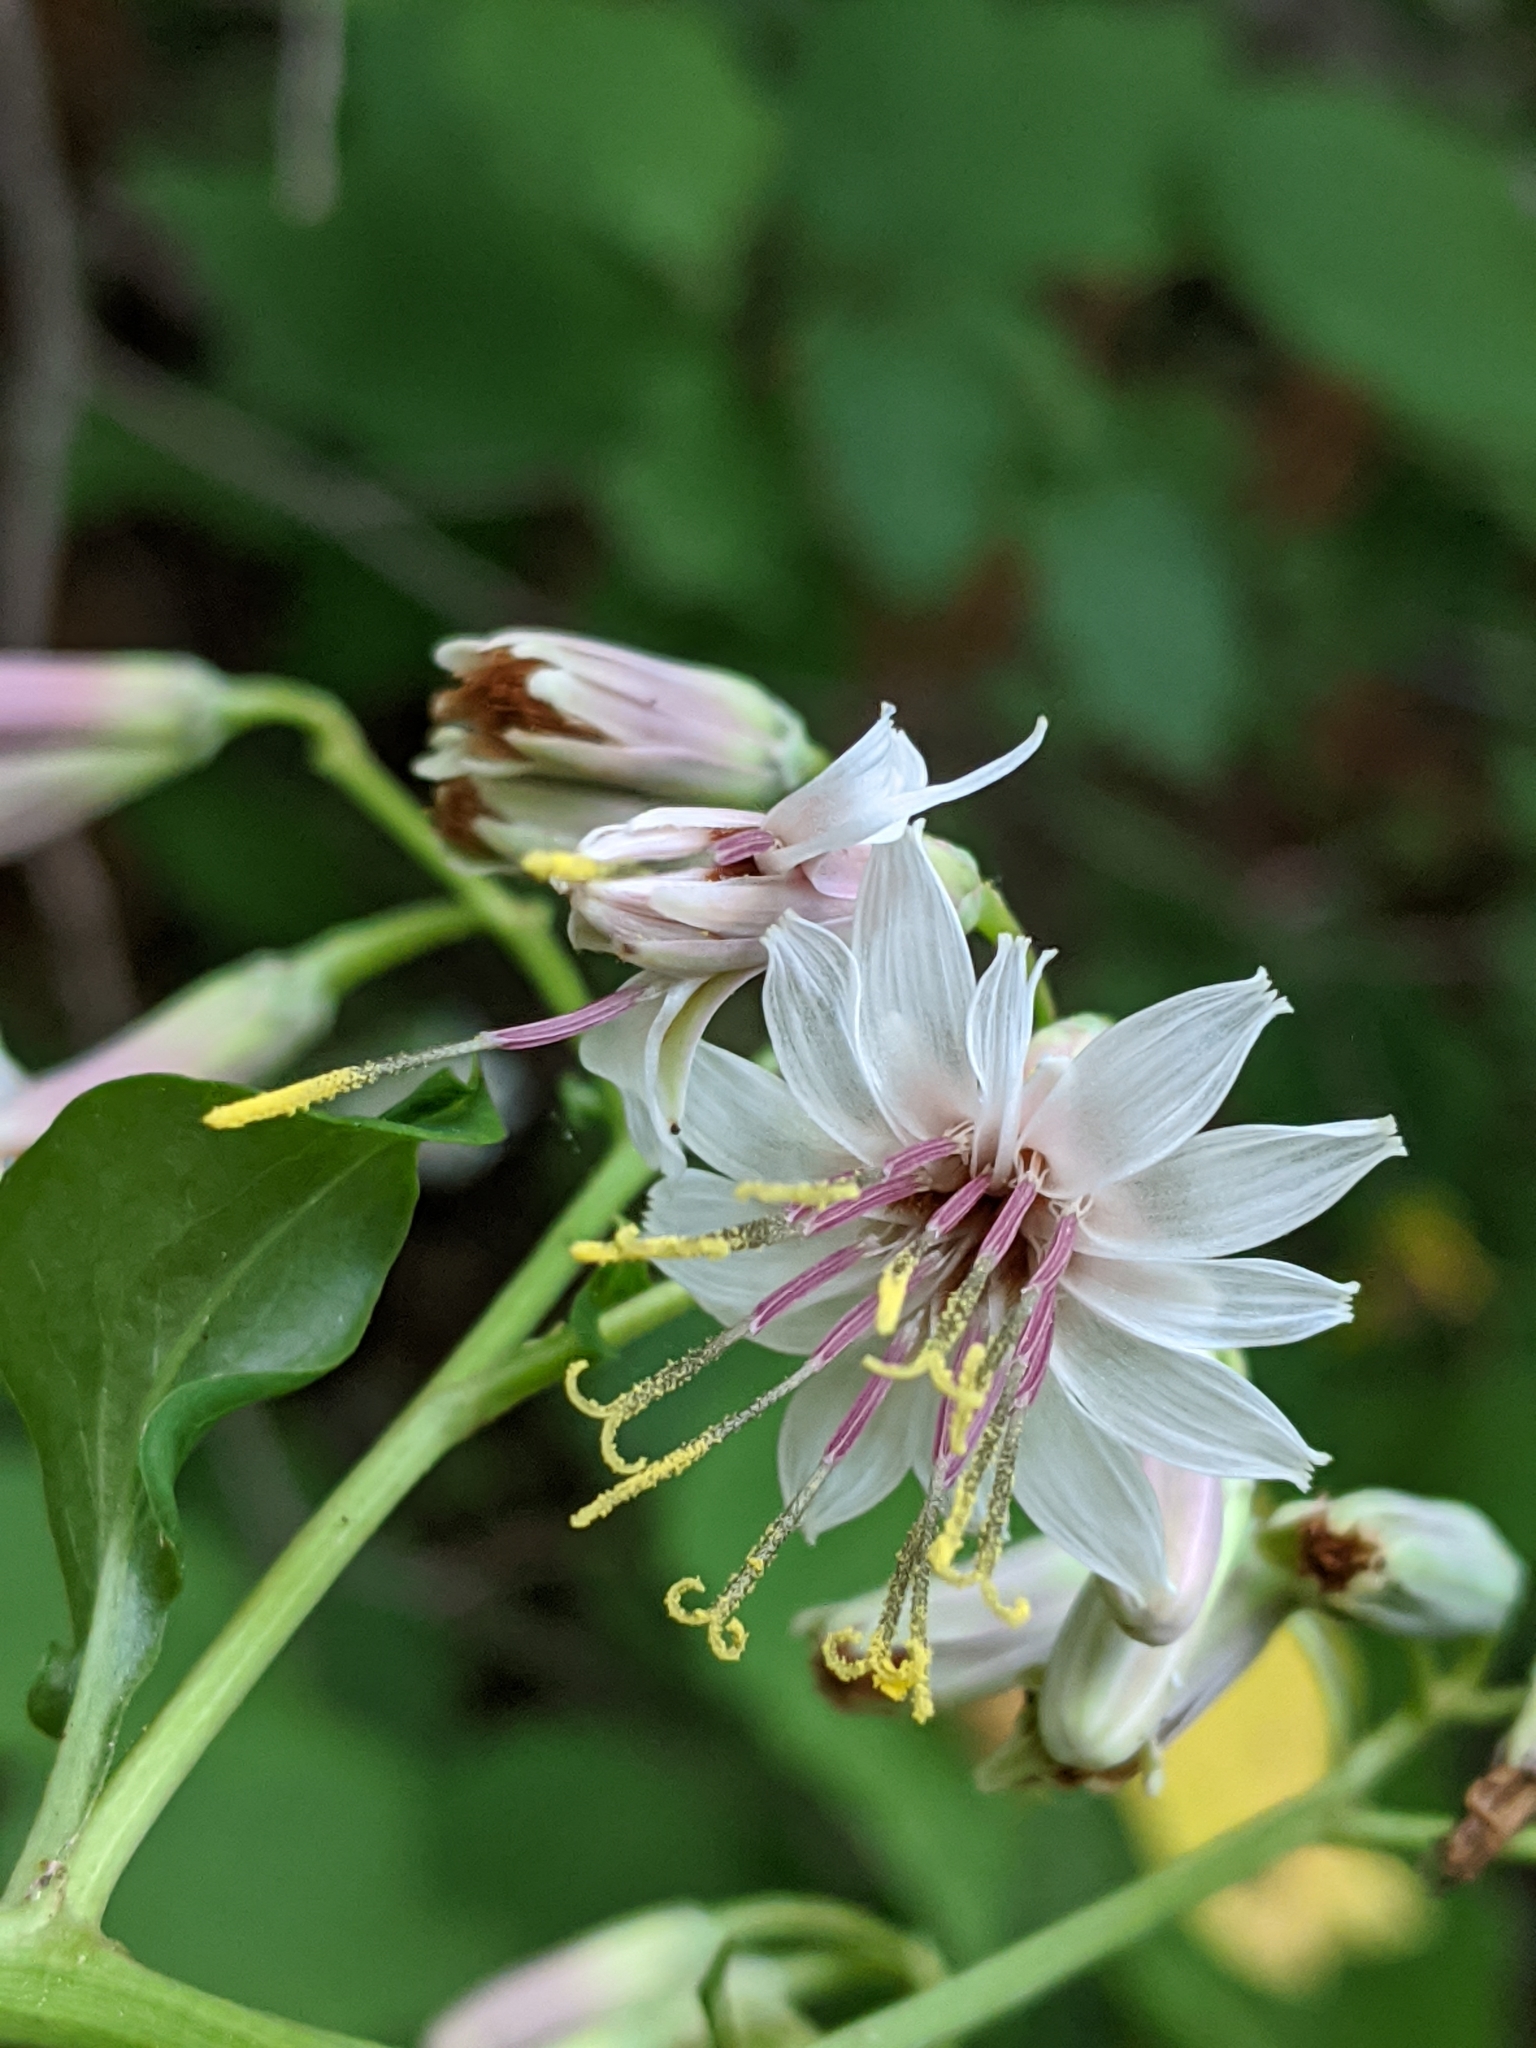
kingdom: Plantae
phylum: Tracheophyta
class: Magnoliopsida
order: Asterales
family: Asteraceae
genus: Nabalus
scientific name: Nabalus albus
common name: White rattlesnakeroot
